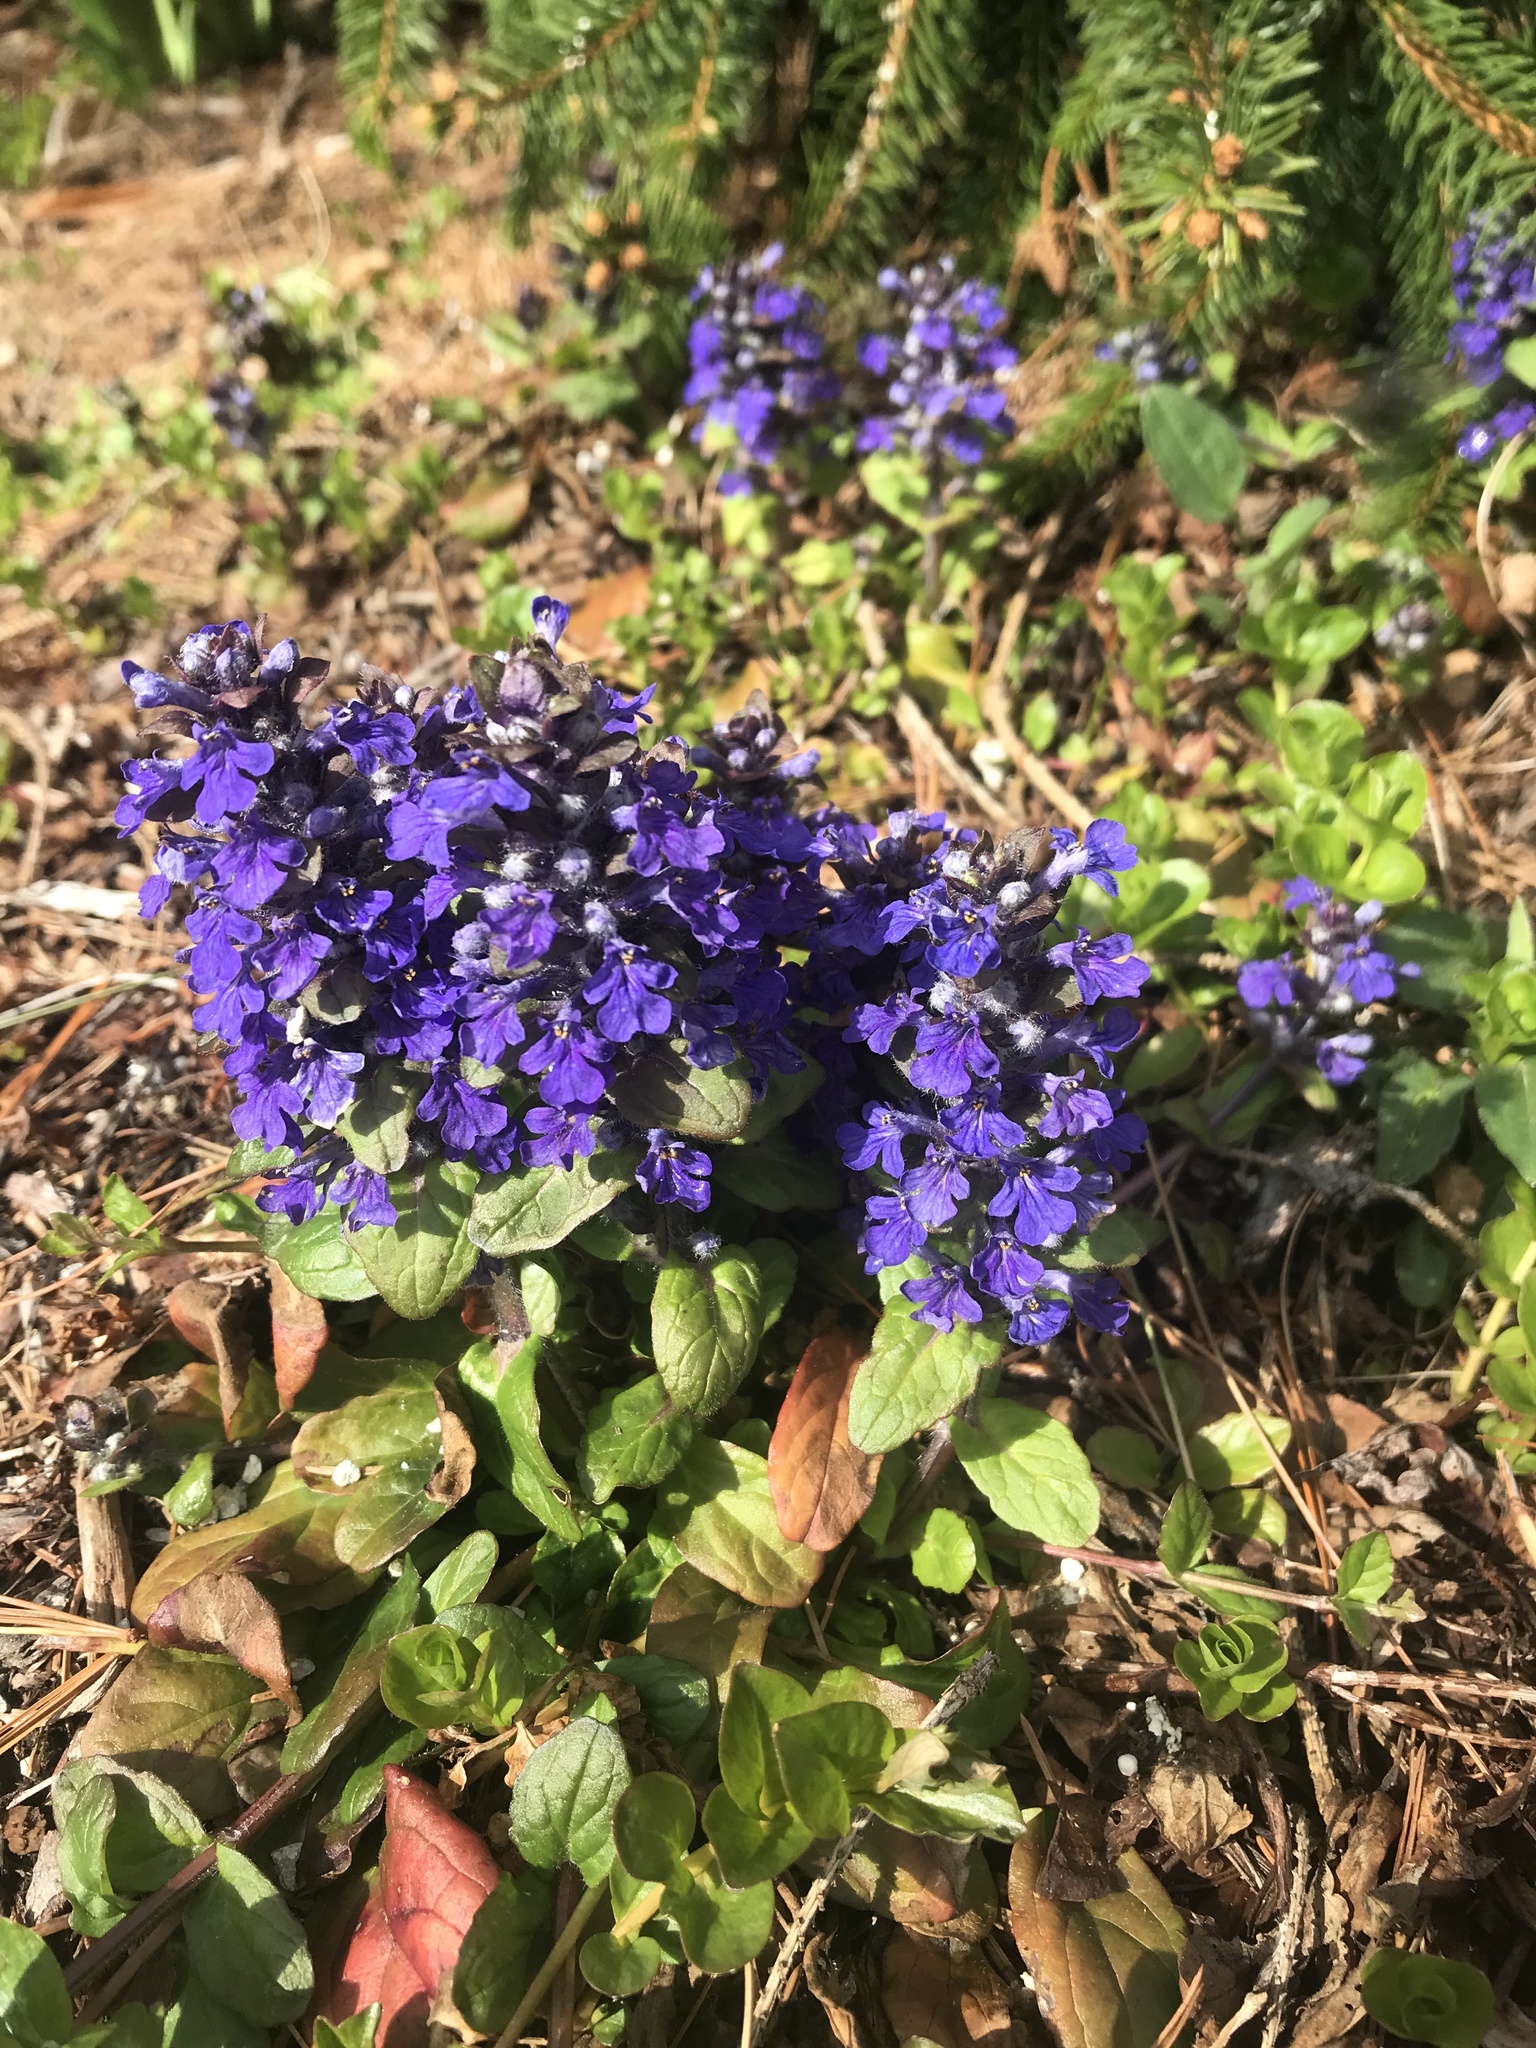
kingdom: Plantae
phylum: Tracheophyta
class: Magnoliopsida
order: Lamiales
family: Lamiaceae
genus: Ajuga
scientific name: Ajuga reptans
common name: Bugle
